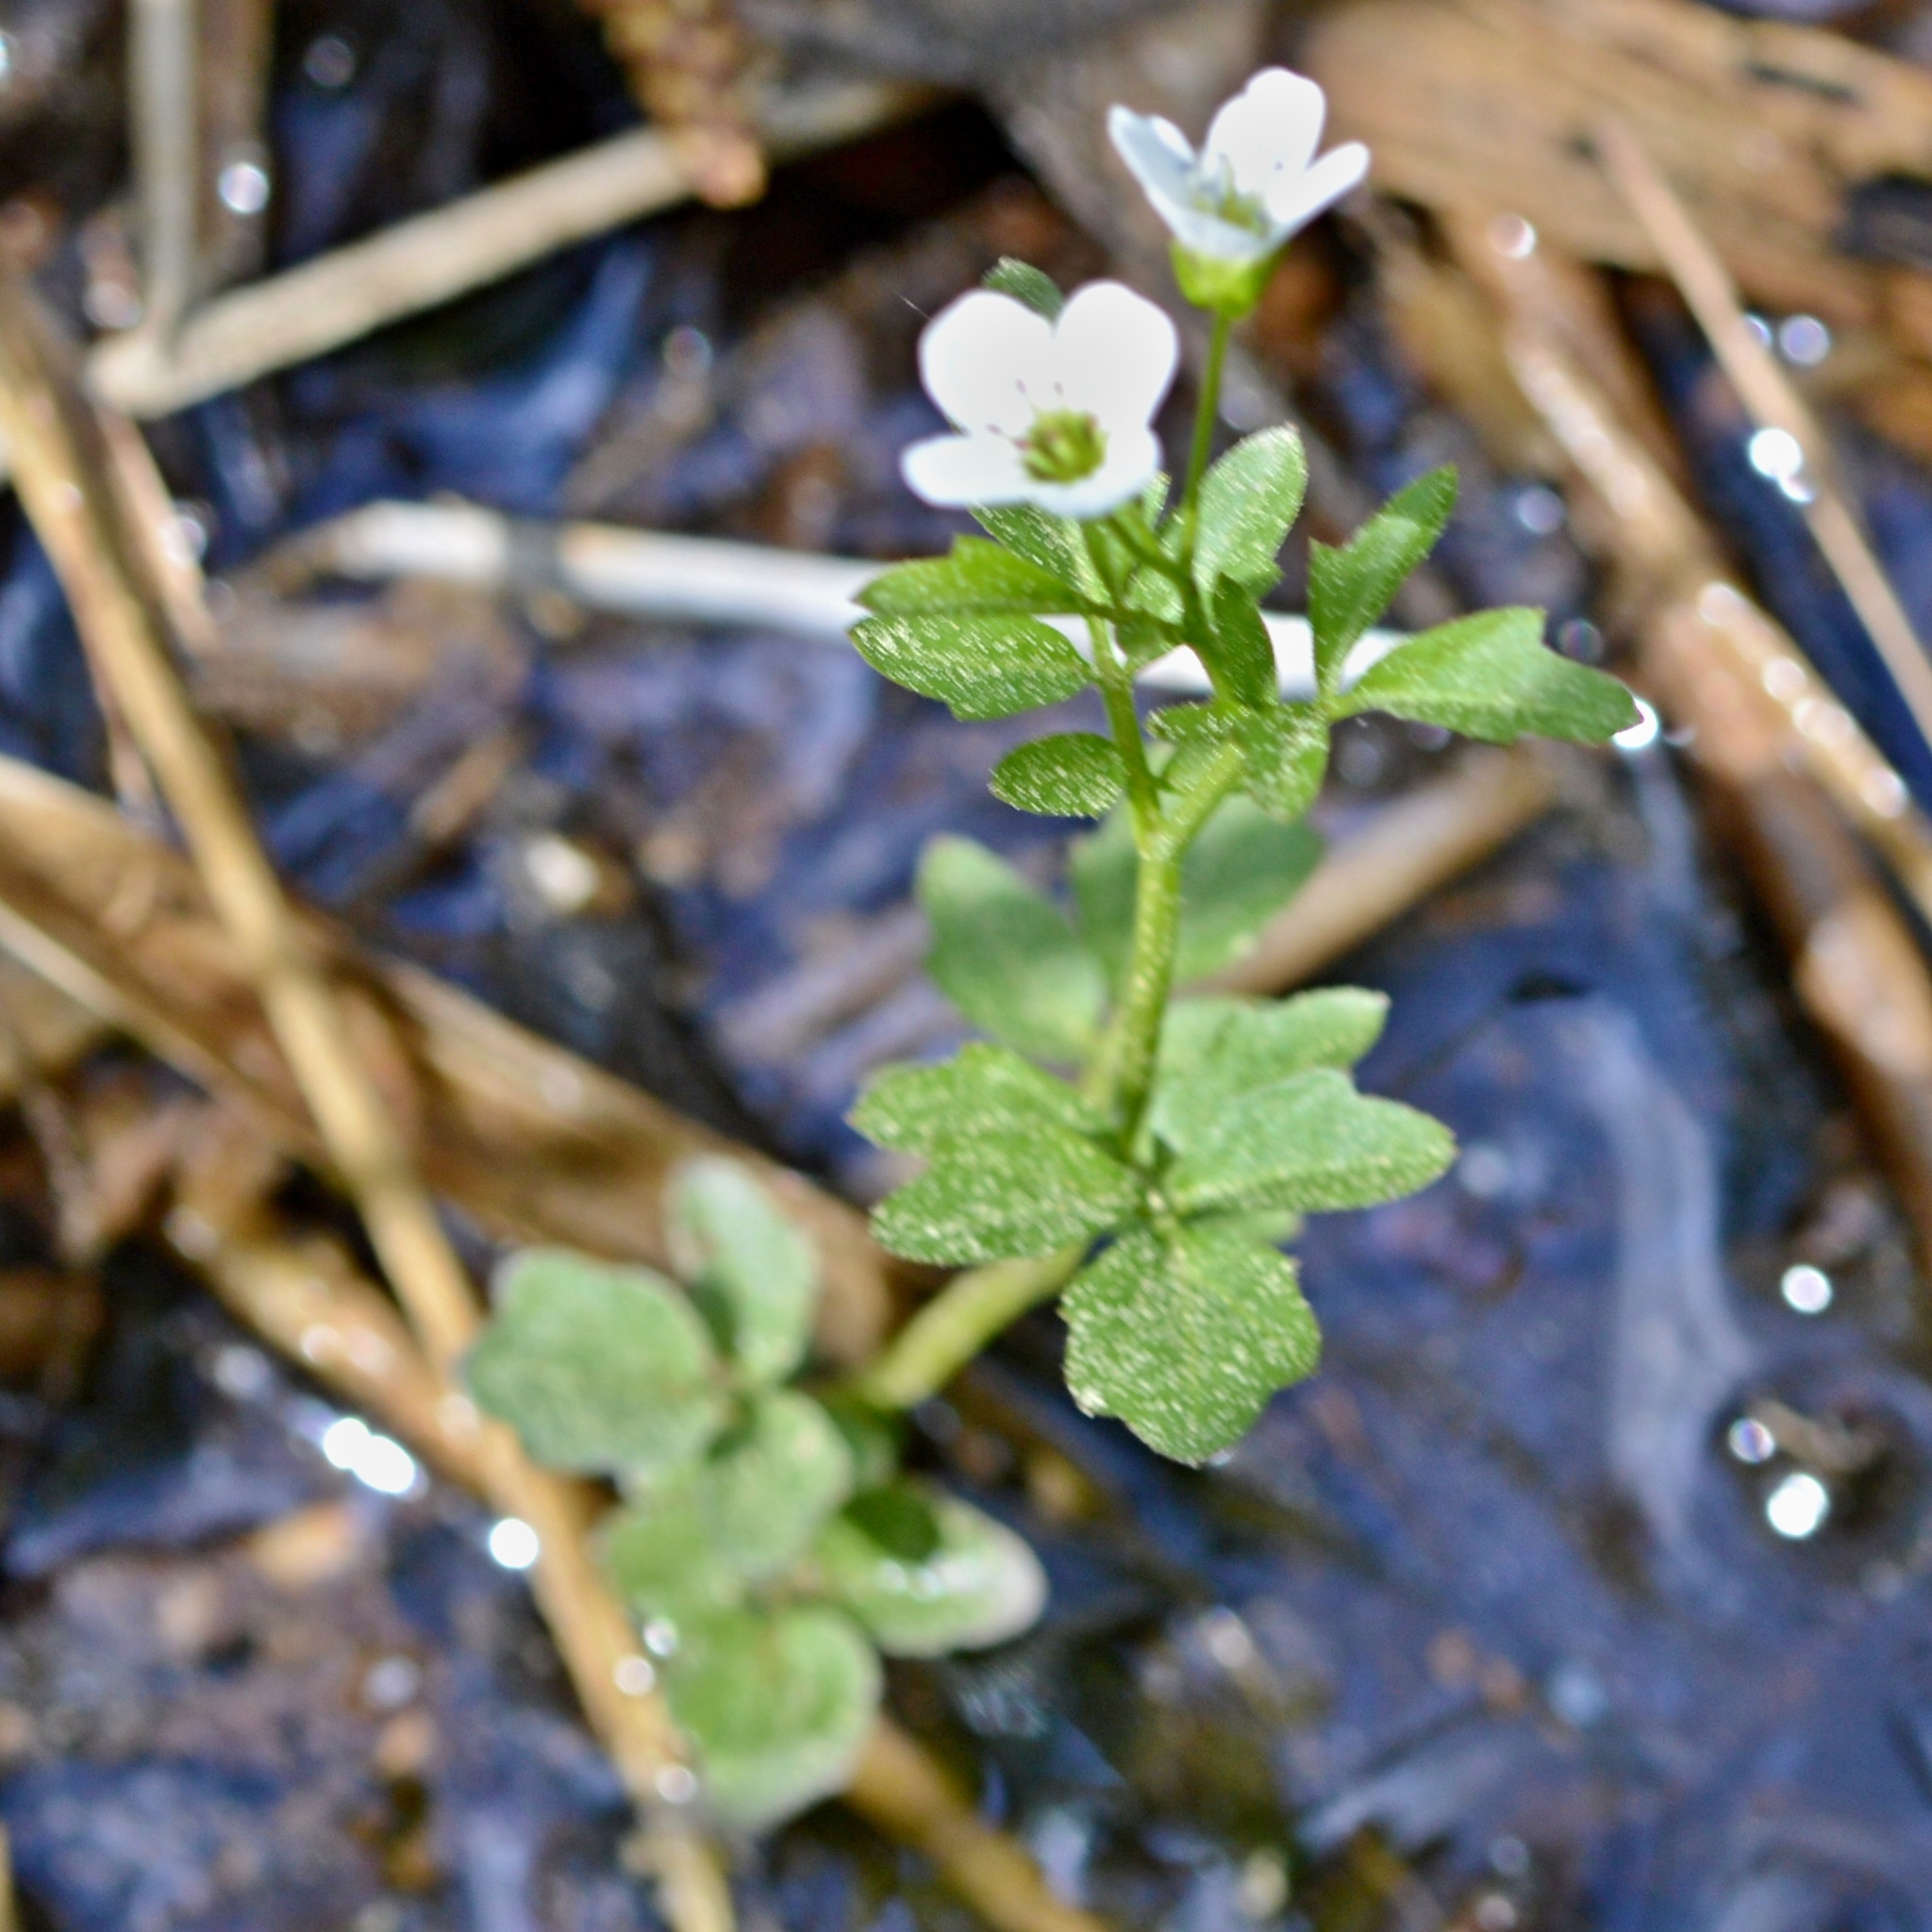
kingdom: Plantae
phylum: Tracheophyta
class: Magnoliopsida
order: Brassicales
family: Brassicaceae
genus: Cardamine
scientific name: Cardamine amara
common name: Large bitter-cress
